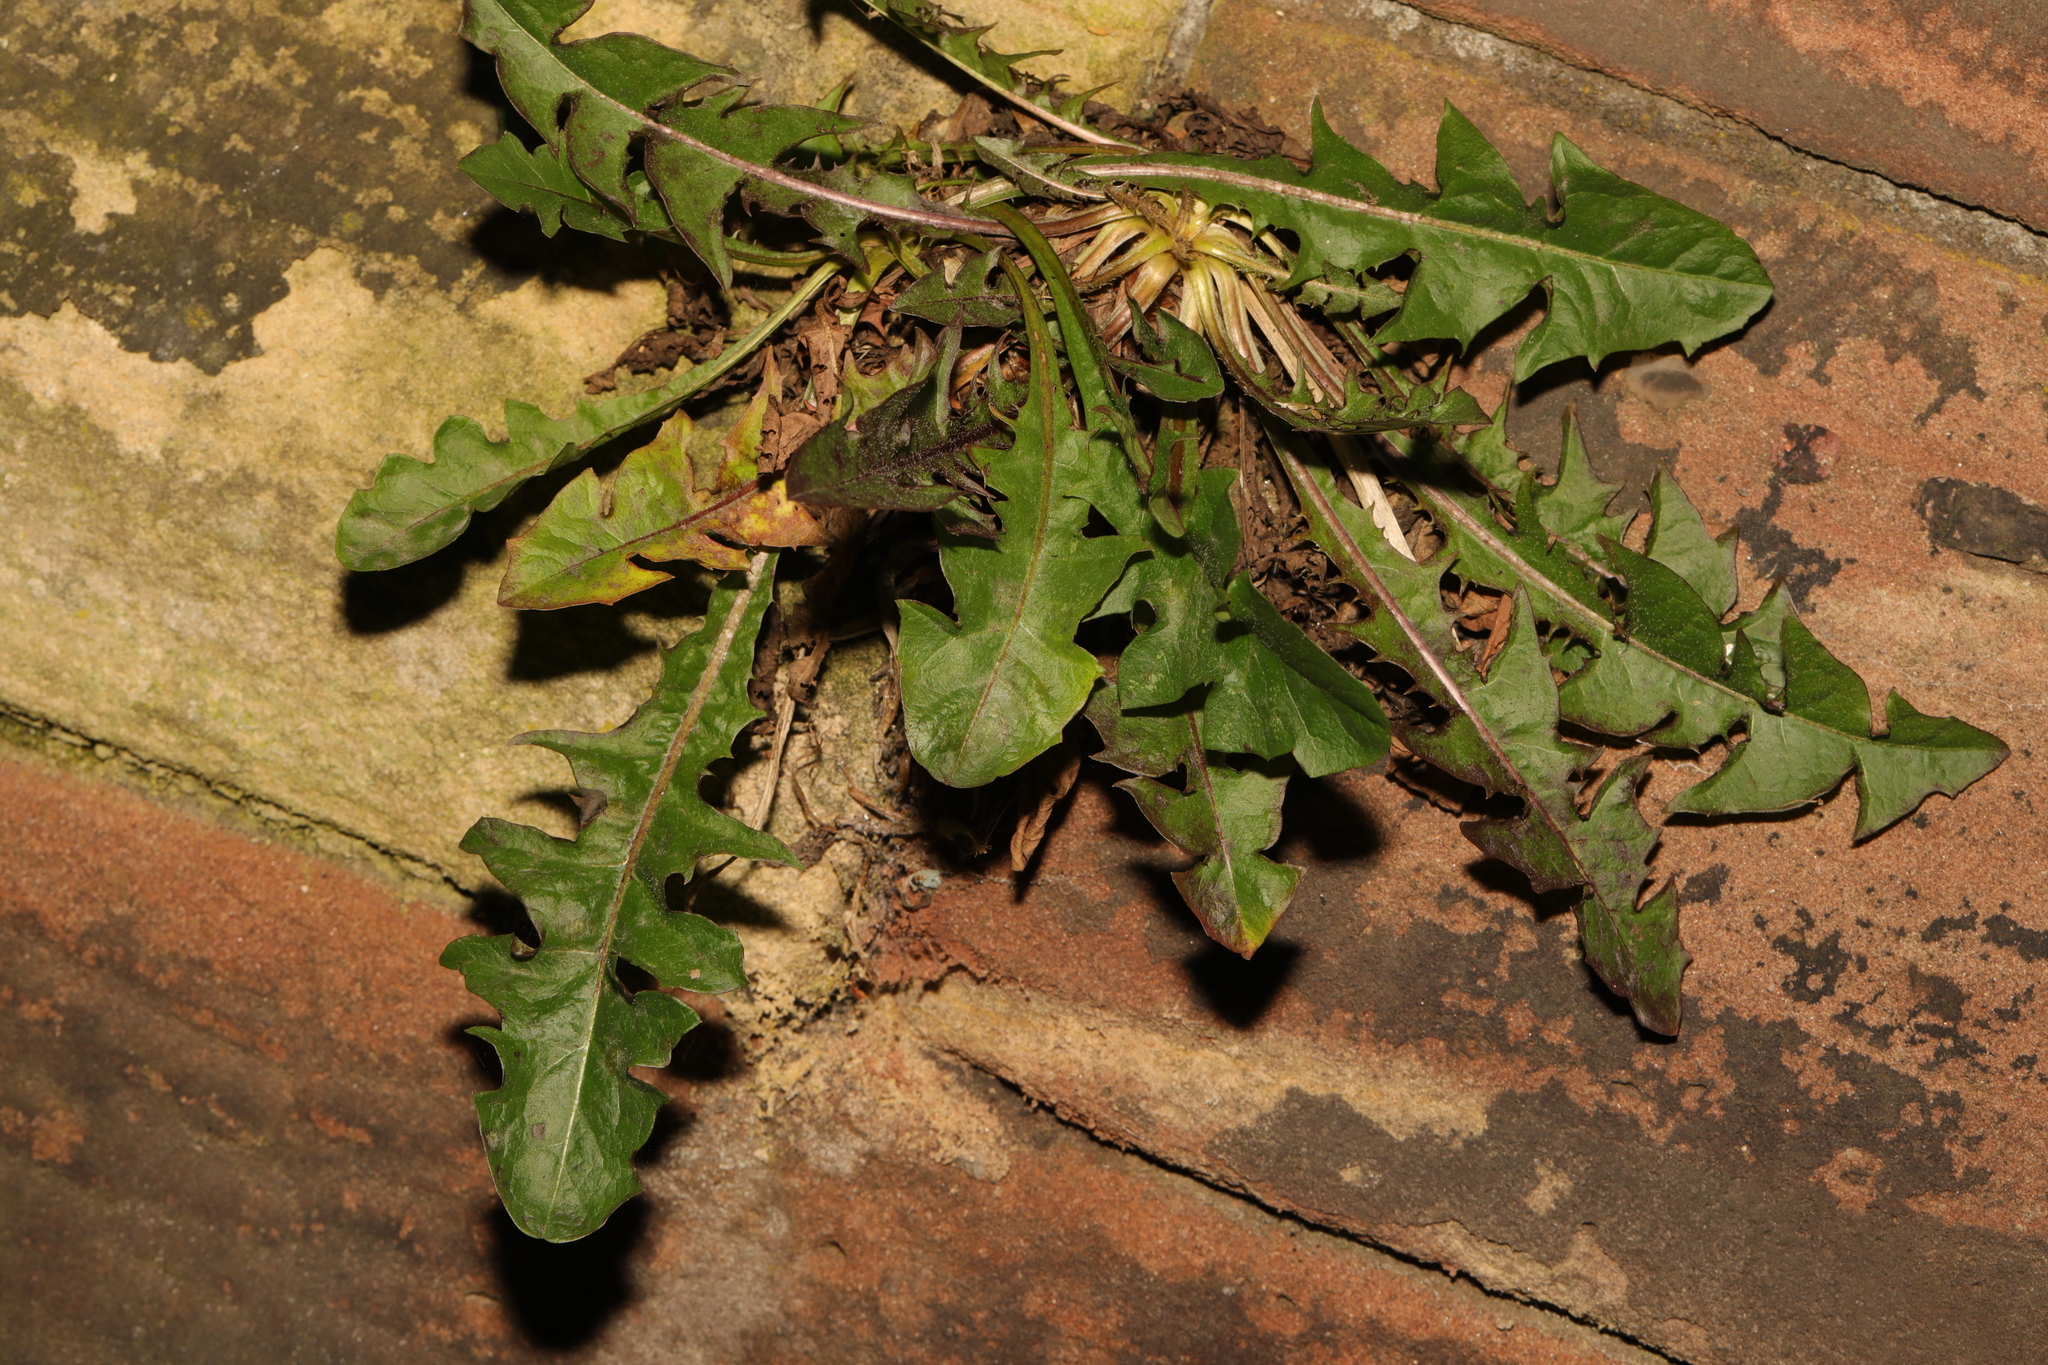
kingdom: Plantae
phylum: Tracheophyta
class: Magnoliopsida
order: Asterales
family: Asteraceae
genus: Taraxacum
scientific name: Taraxacum officinale
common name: Common dandelion
